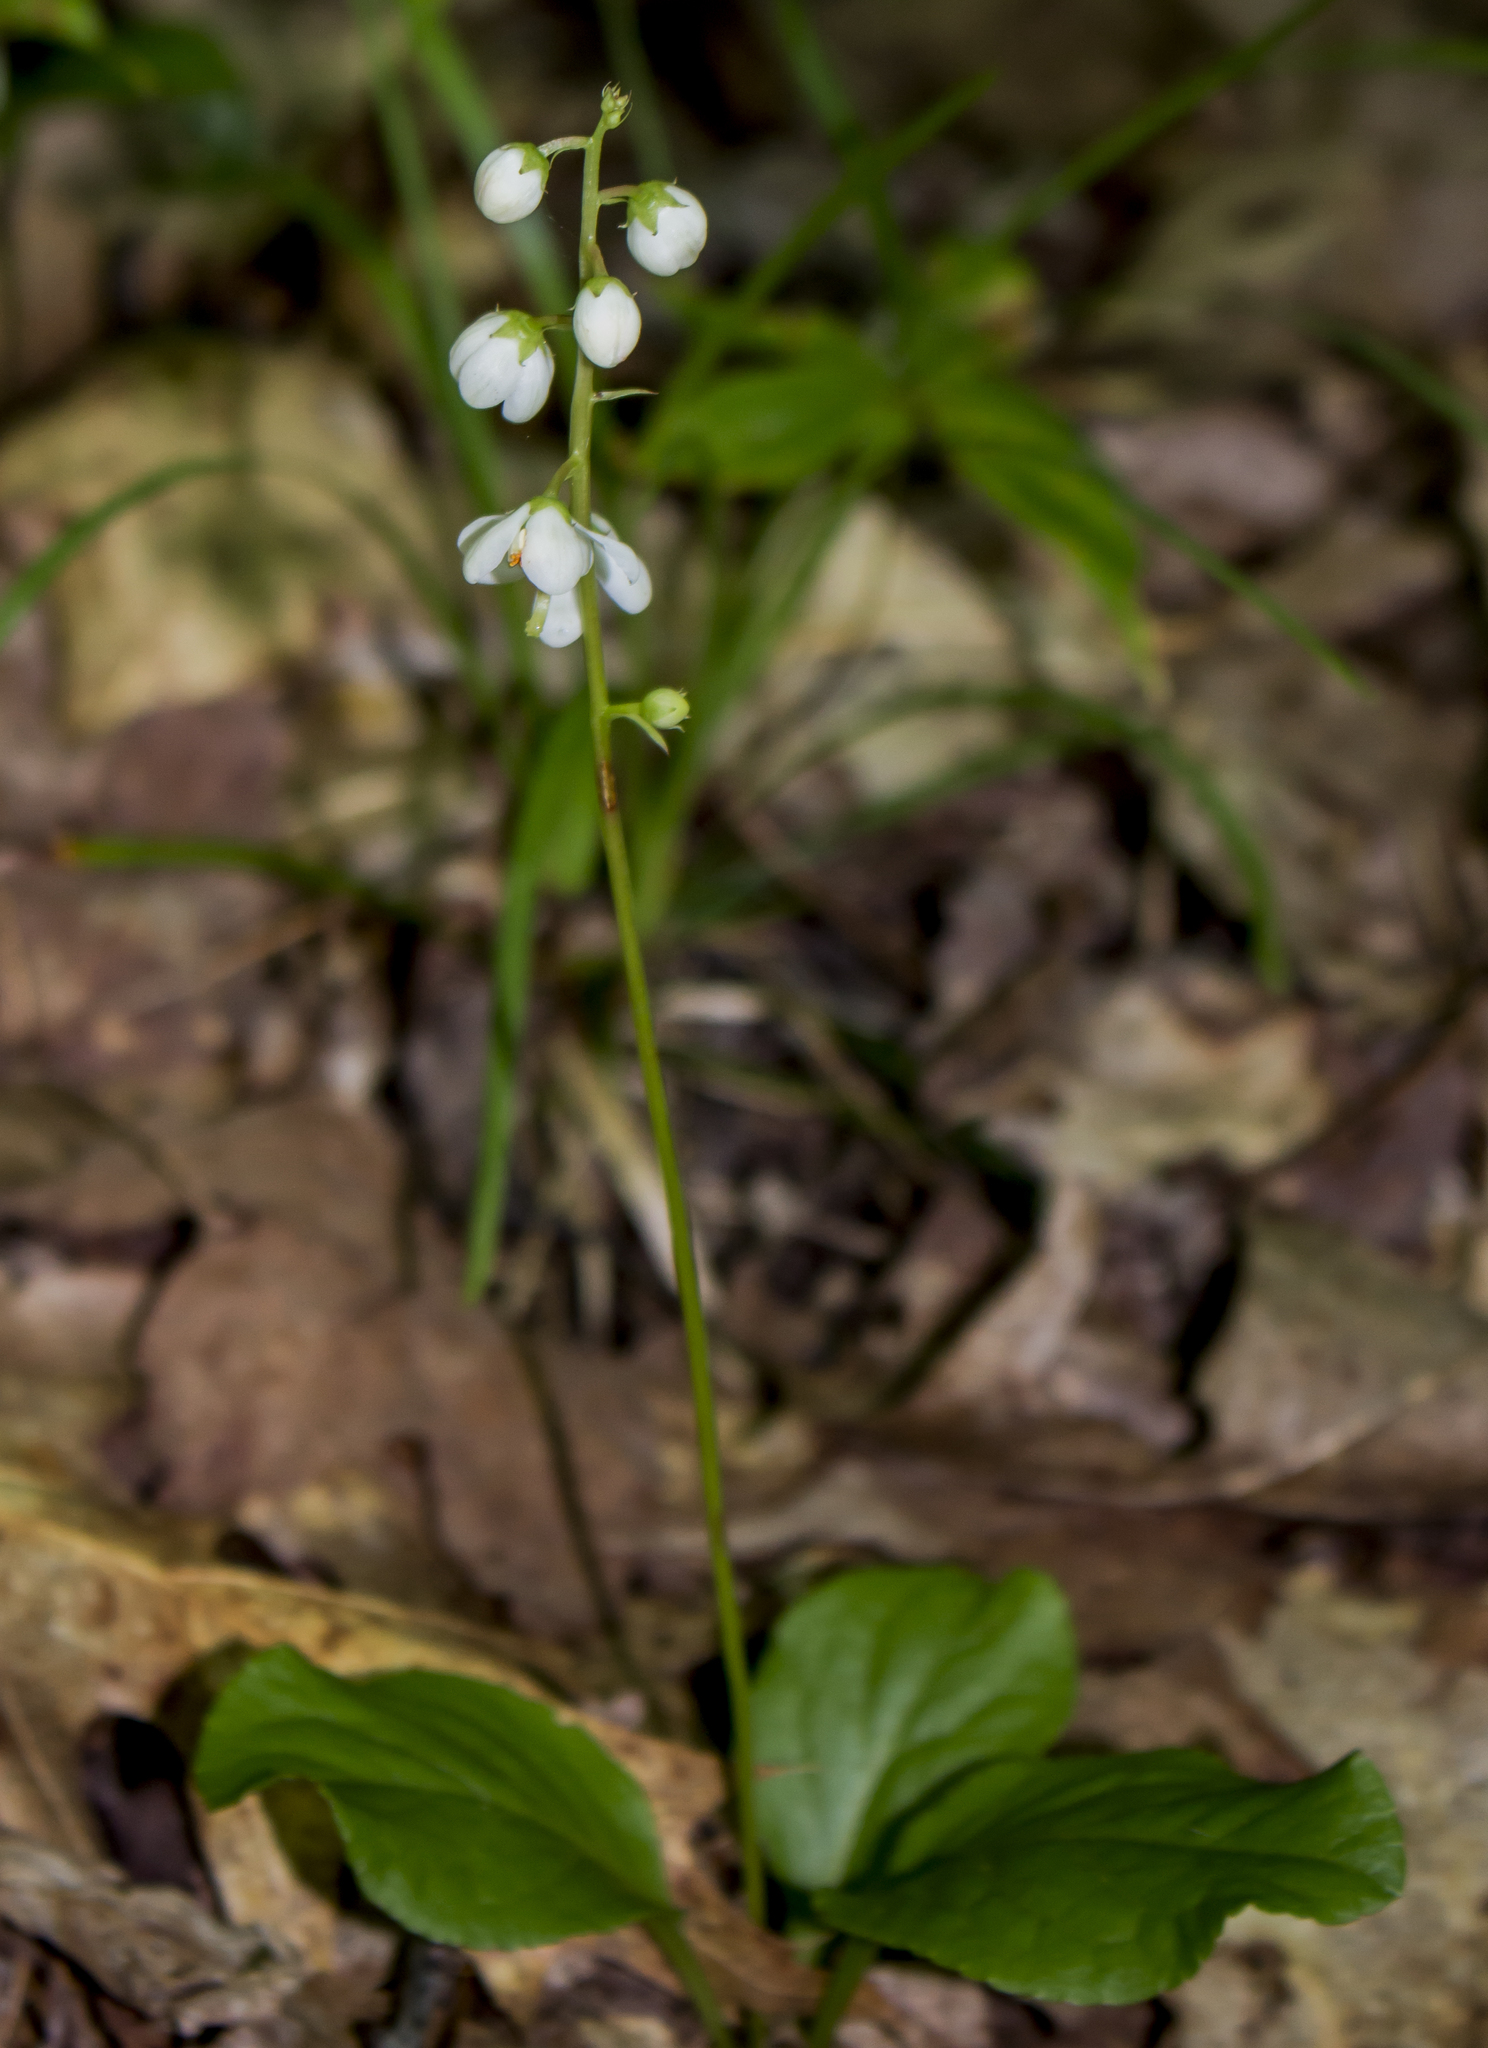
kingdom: Plantae
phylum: Tracheophyta
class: Magnoliopsida
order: Ericales
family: Ericaceae
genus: Pyrola
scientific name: Pyrola elliptica
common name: Shinleaf
